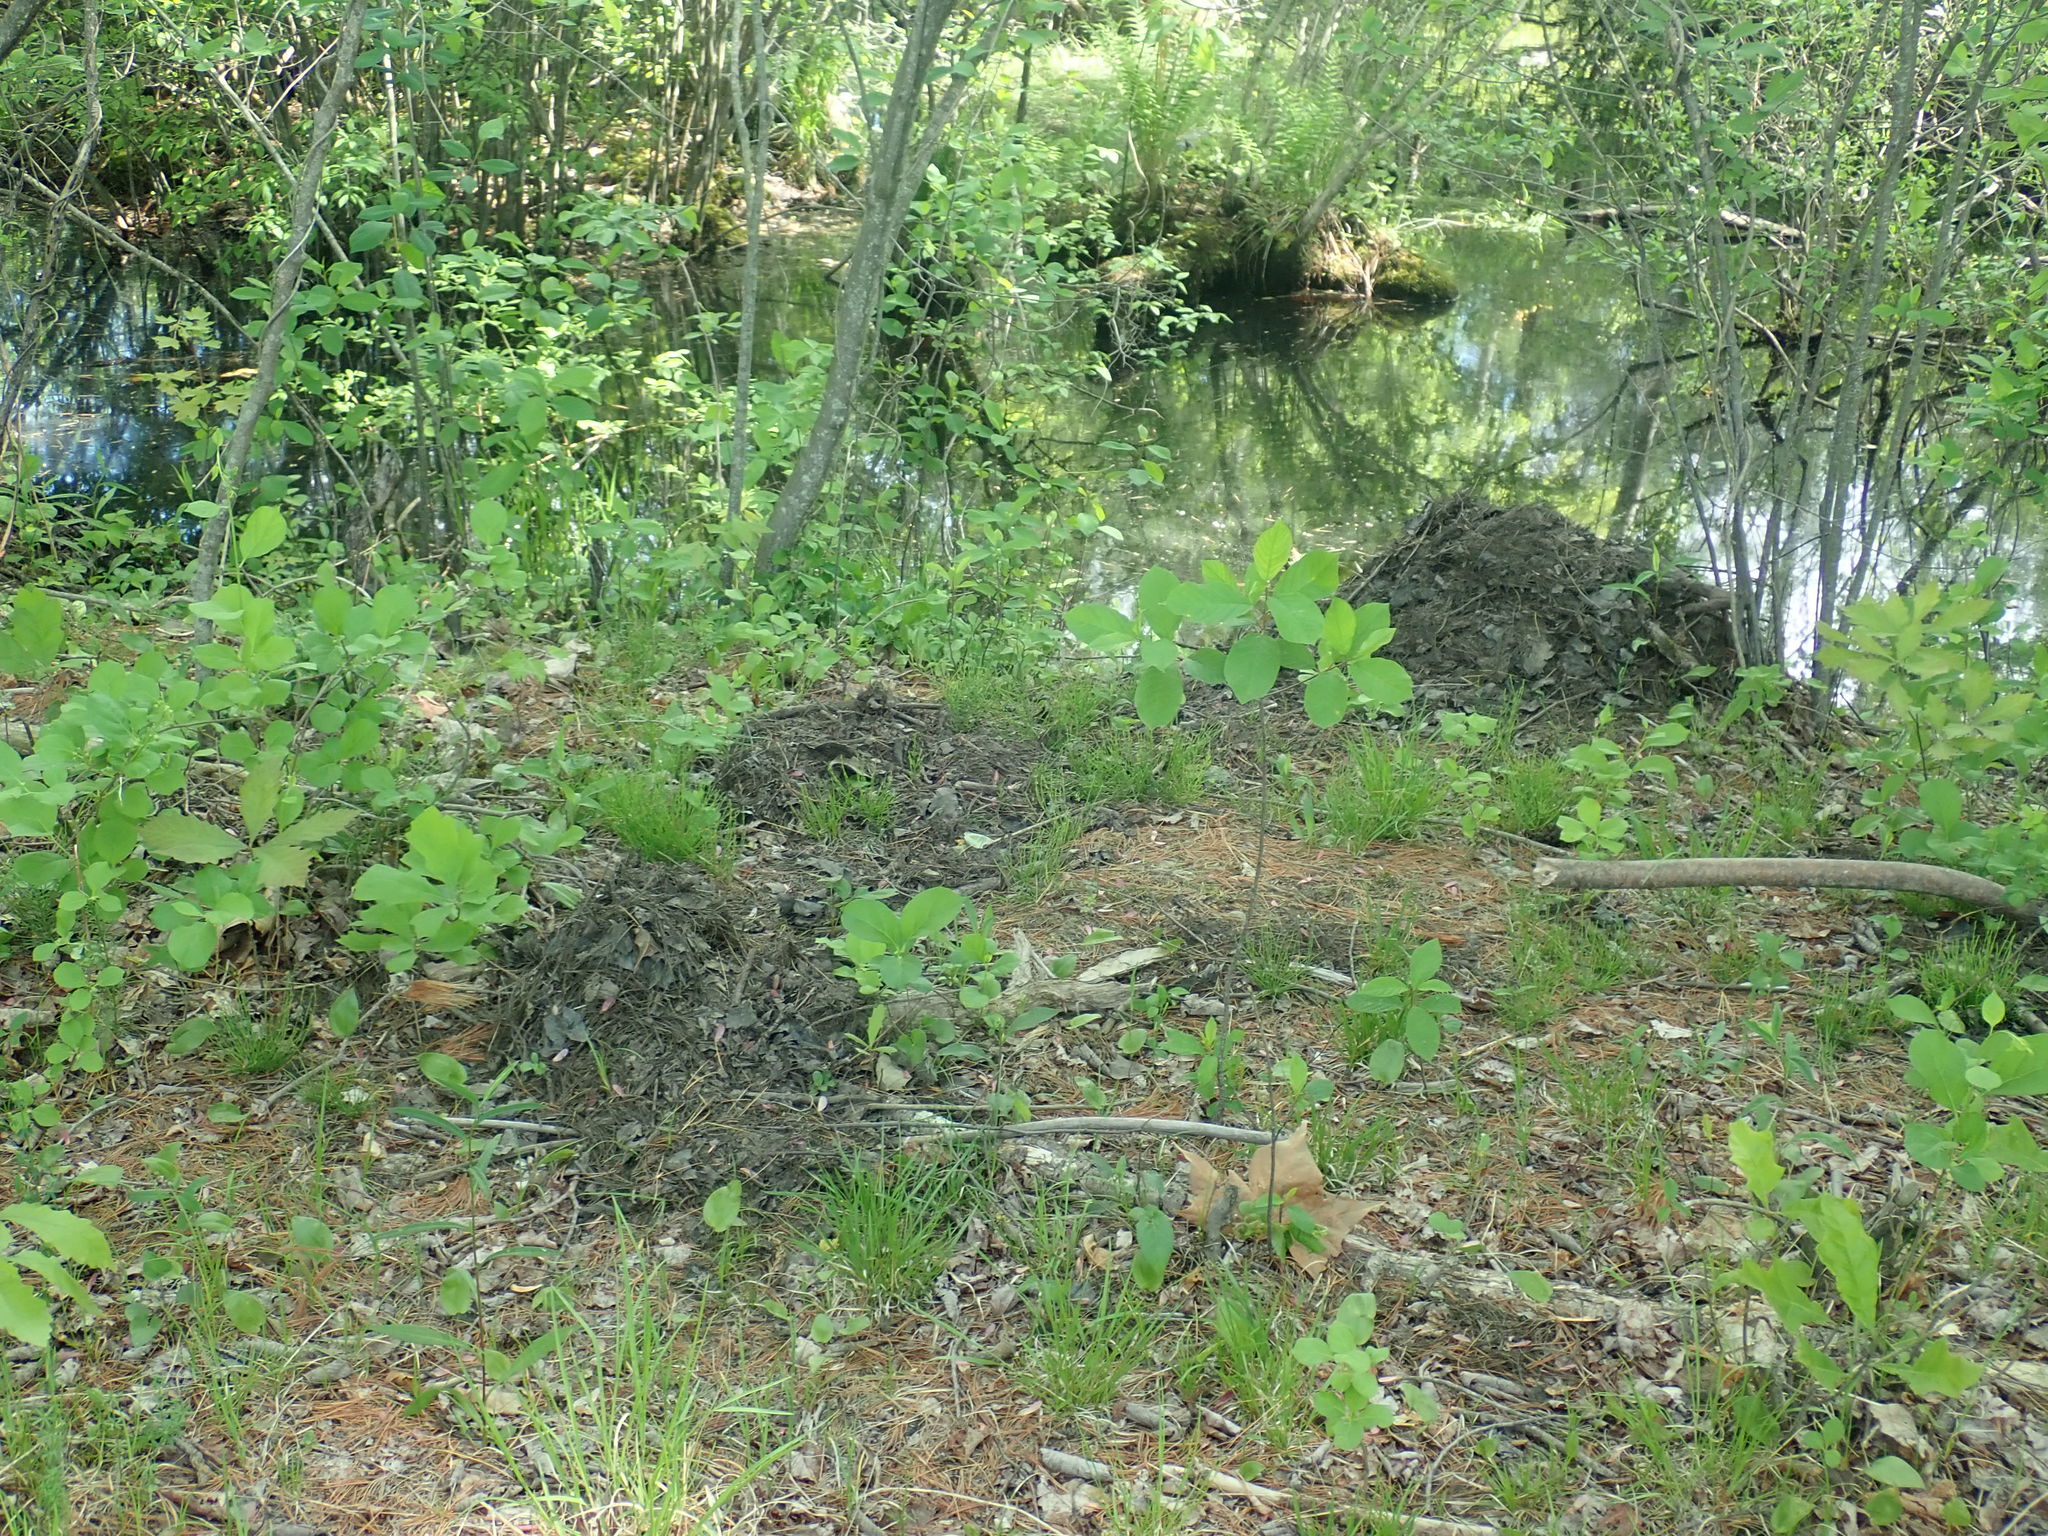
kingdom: Animalia
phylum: Chordata
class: Mammalia
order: Rodentia
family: Castoridae
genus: Castor
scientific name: Castor canadensis
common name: American beaver
